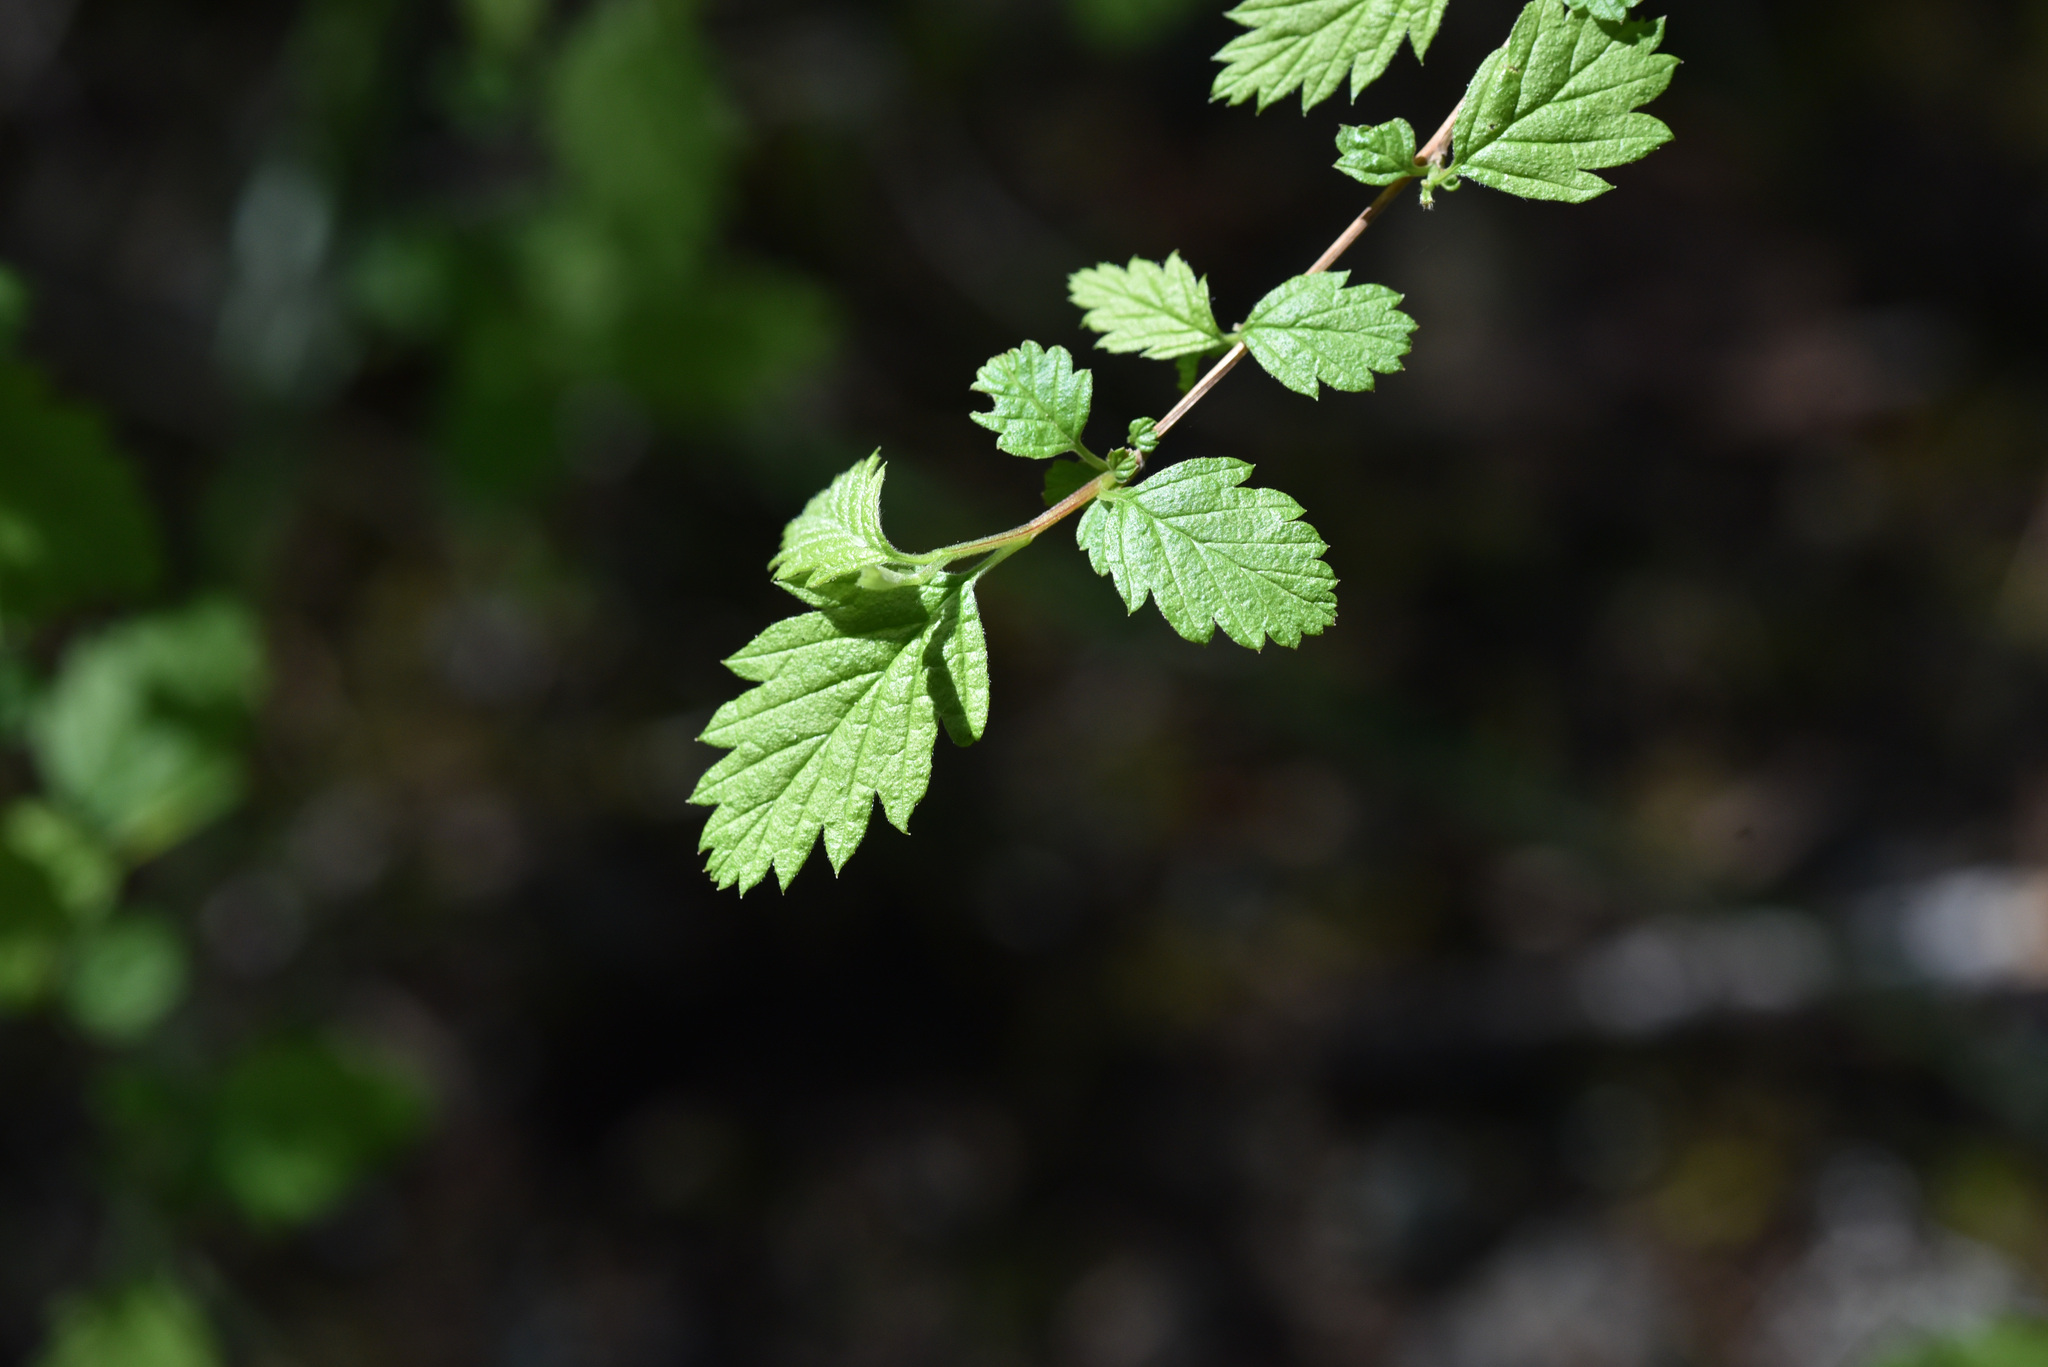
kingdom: Plantae
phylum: Tracheophyta
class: Magnoliopsida
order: Rosales
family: Rosaceae
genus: Holodiscus
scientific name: Holodiscus discolor
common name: Oceanspray
